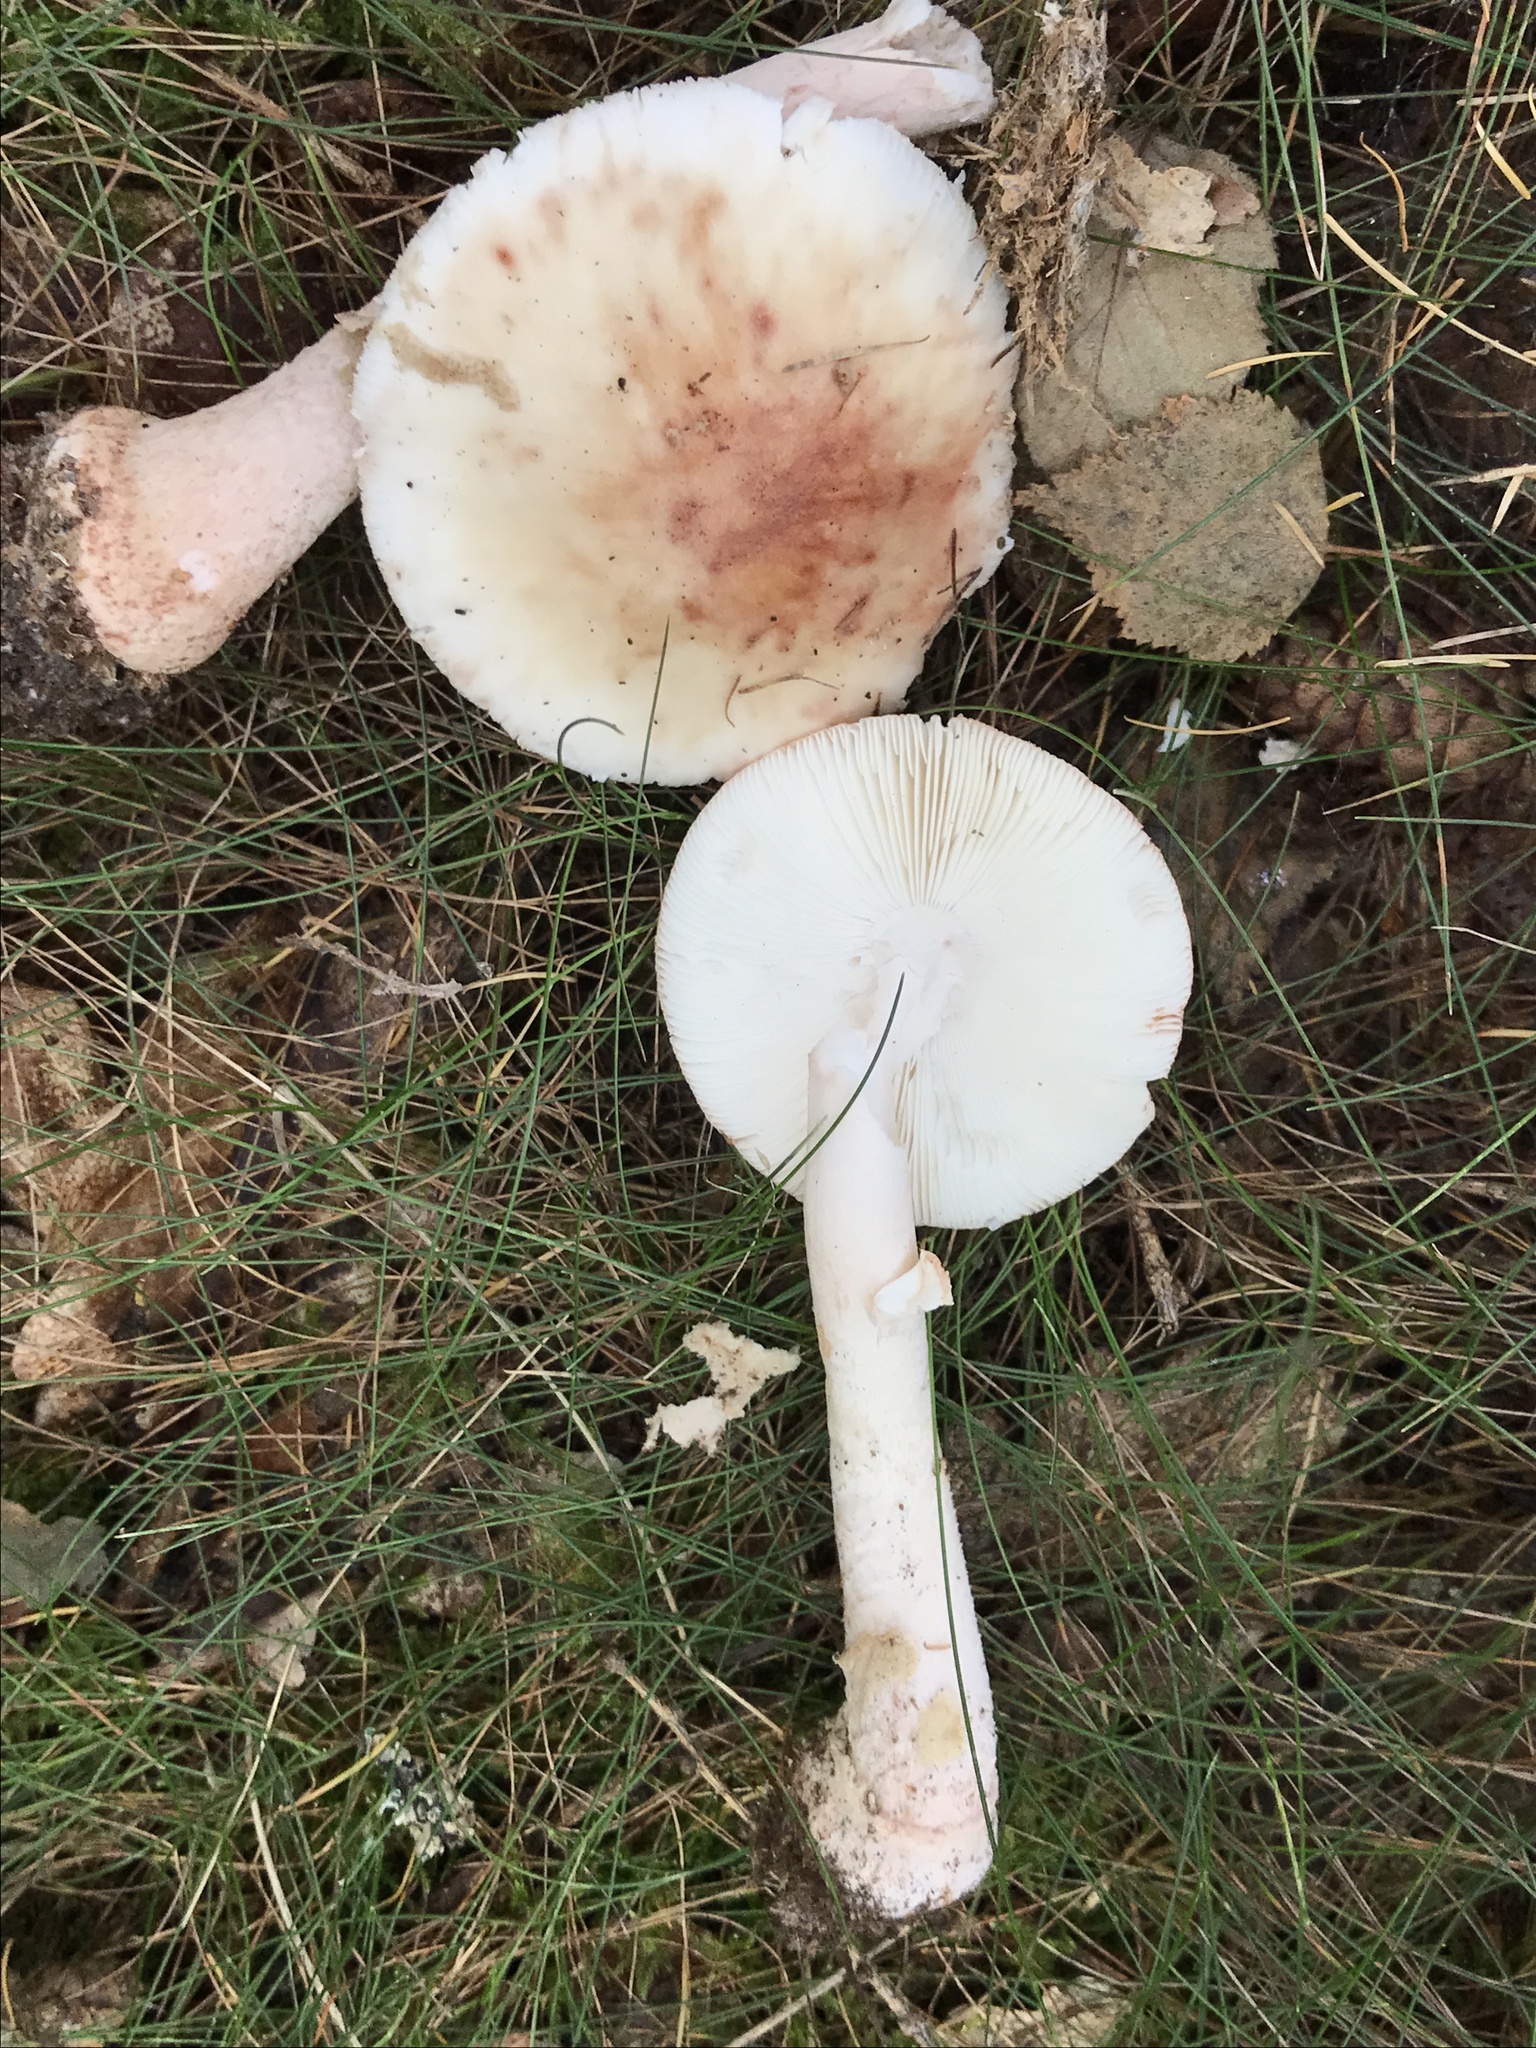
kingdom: Fungi
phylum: Basidiomycota
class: Agaricomycetes
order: Agaricales
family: Amanitaceae
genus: Amanita
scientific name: Amanita rubescens
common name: Blusher
